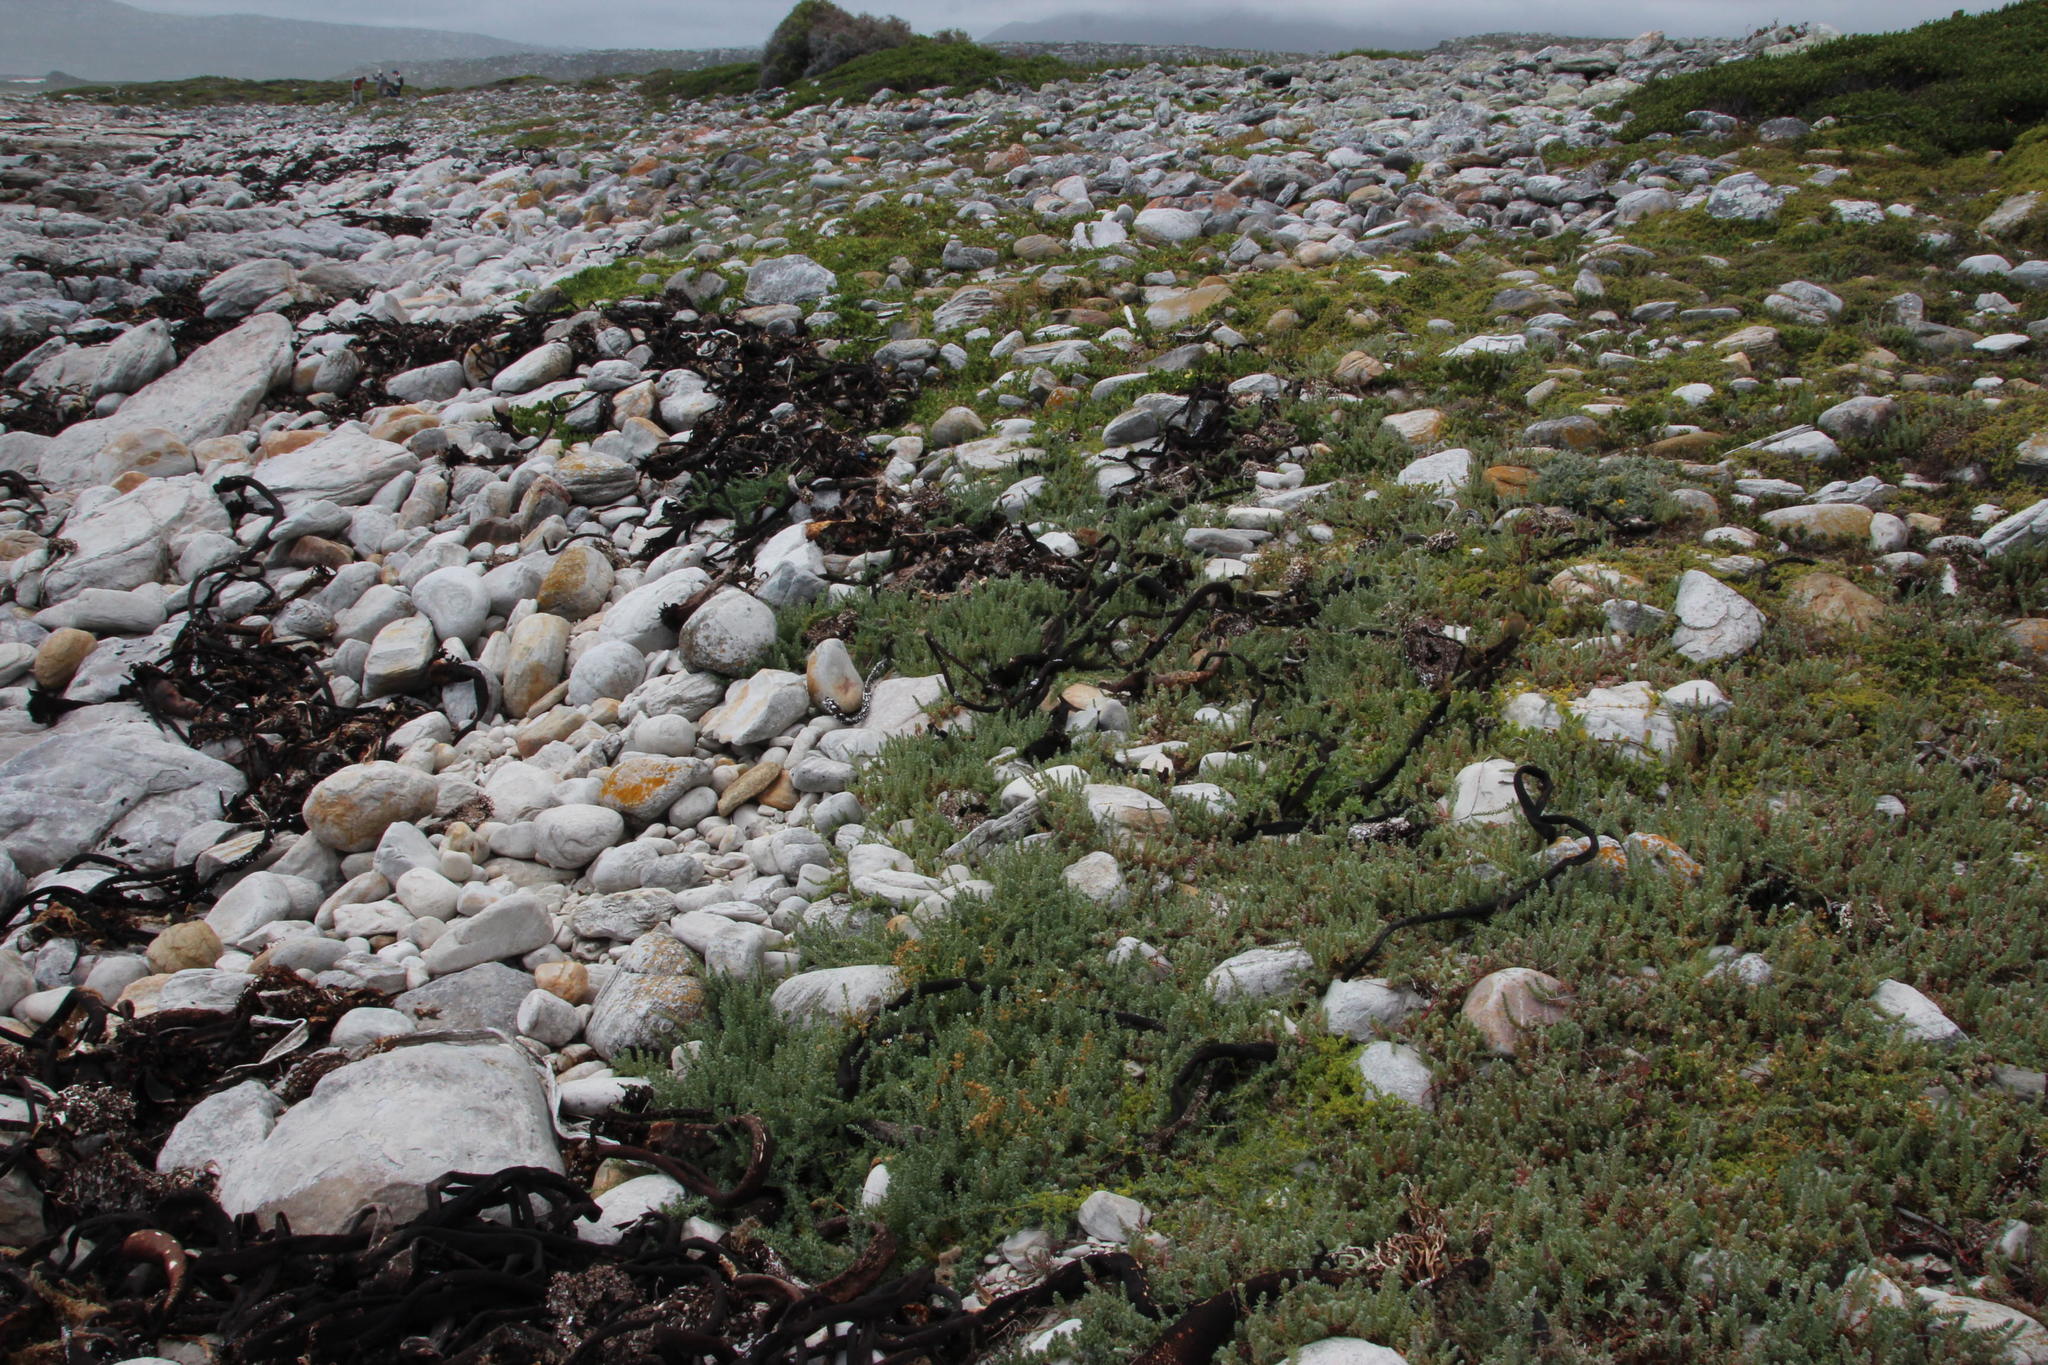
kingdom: Plantae
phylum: Tracheophyta
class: Magnoliopsida
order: Caryophyllales
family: Amaranthaceae
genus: Chenolea
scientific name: Chenolea diffusa
